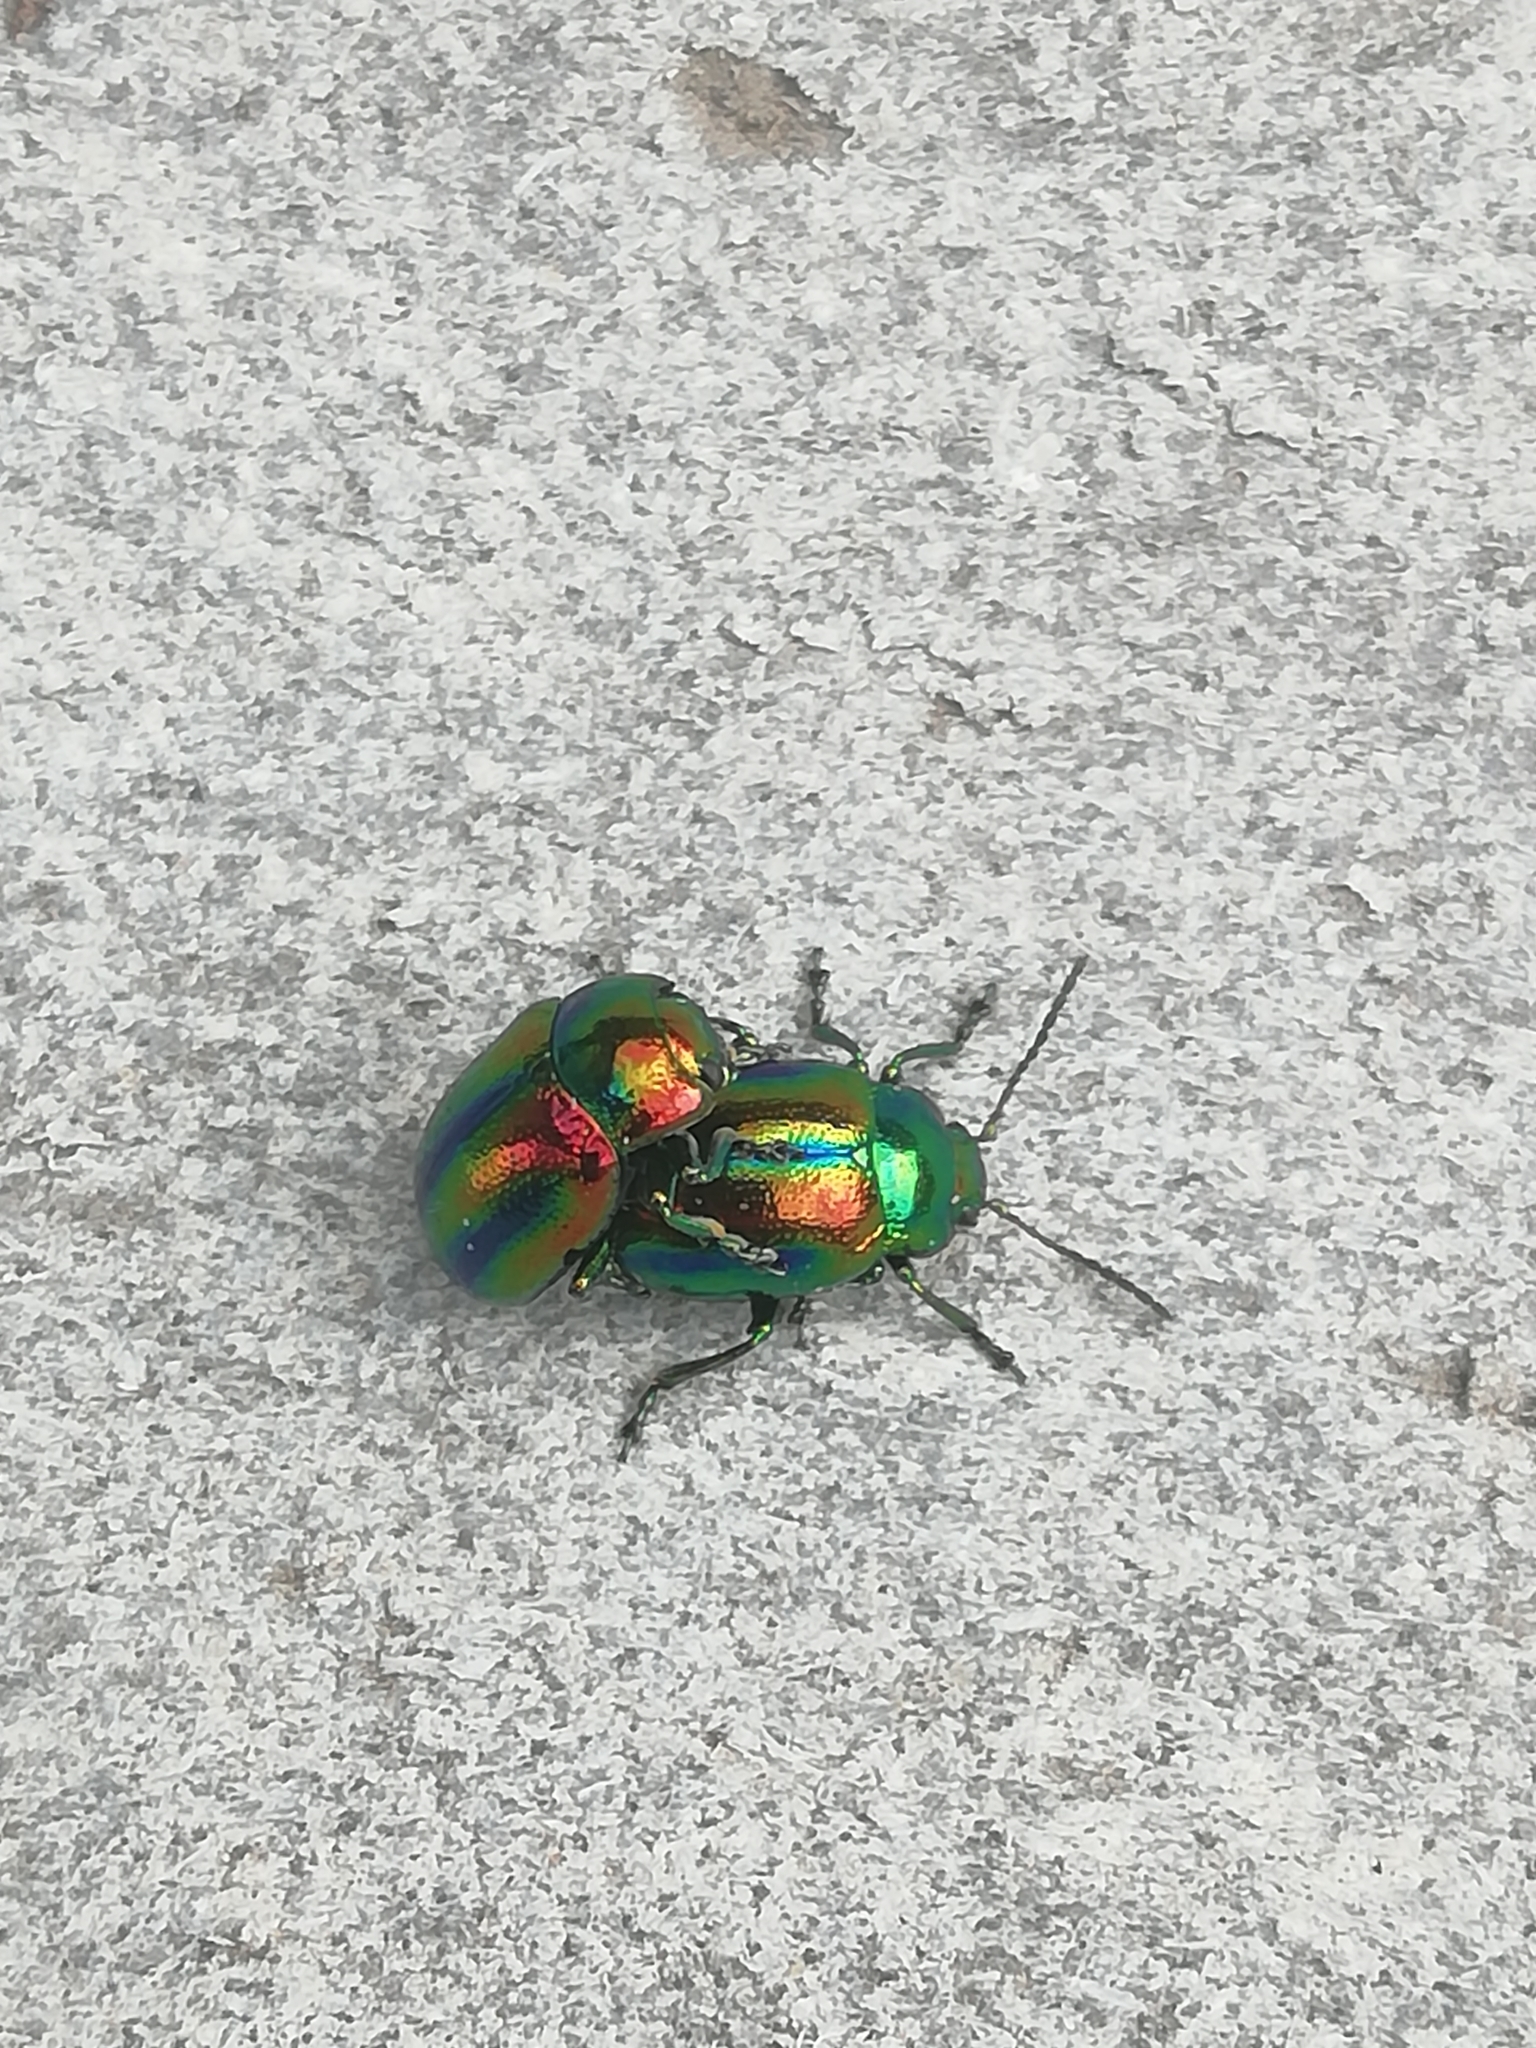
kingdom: Animalia
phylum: Arthropoda
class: Insecta
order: Coleoptera
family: Chrysomelidae
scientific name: Chrysomelidae
